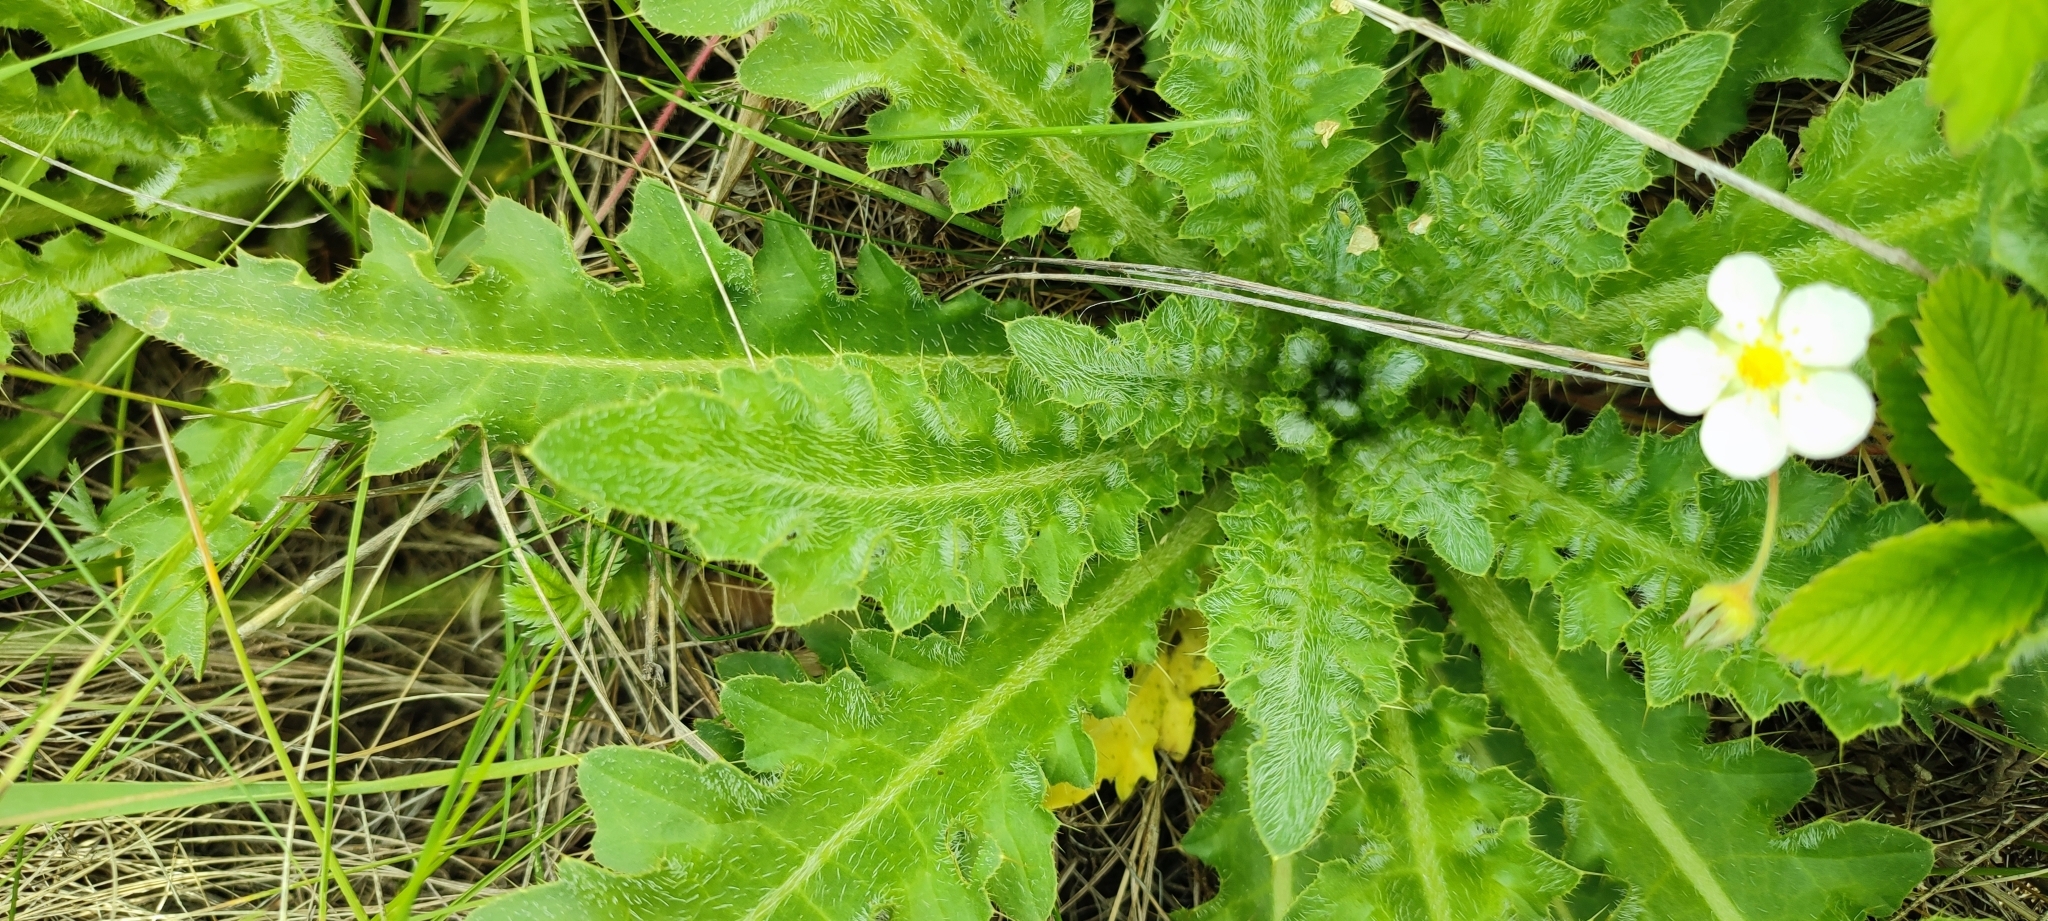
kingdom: Plantae
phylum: Tracheophyta
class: Magnoliopsida
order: Asterales
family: Asteraceae
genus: Cirsium
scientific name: Cirsium esculentum
